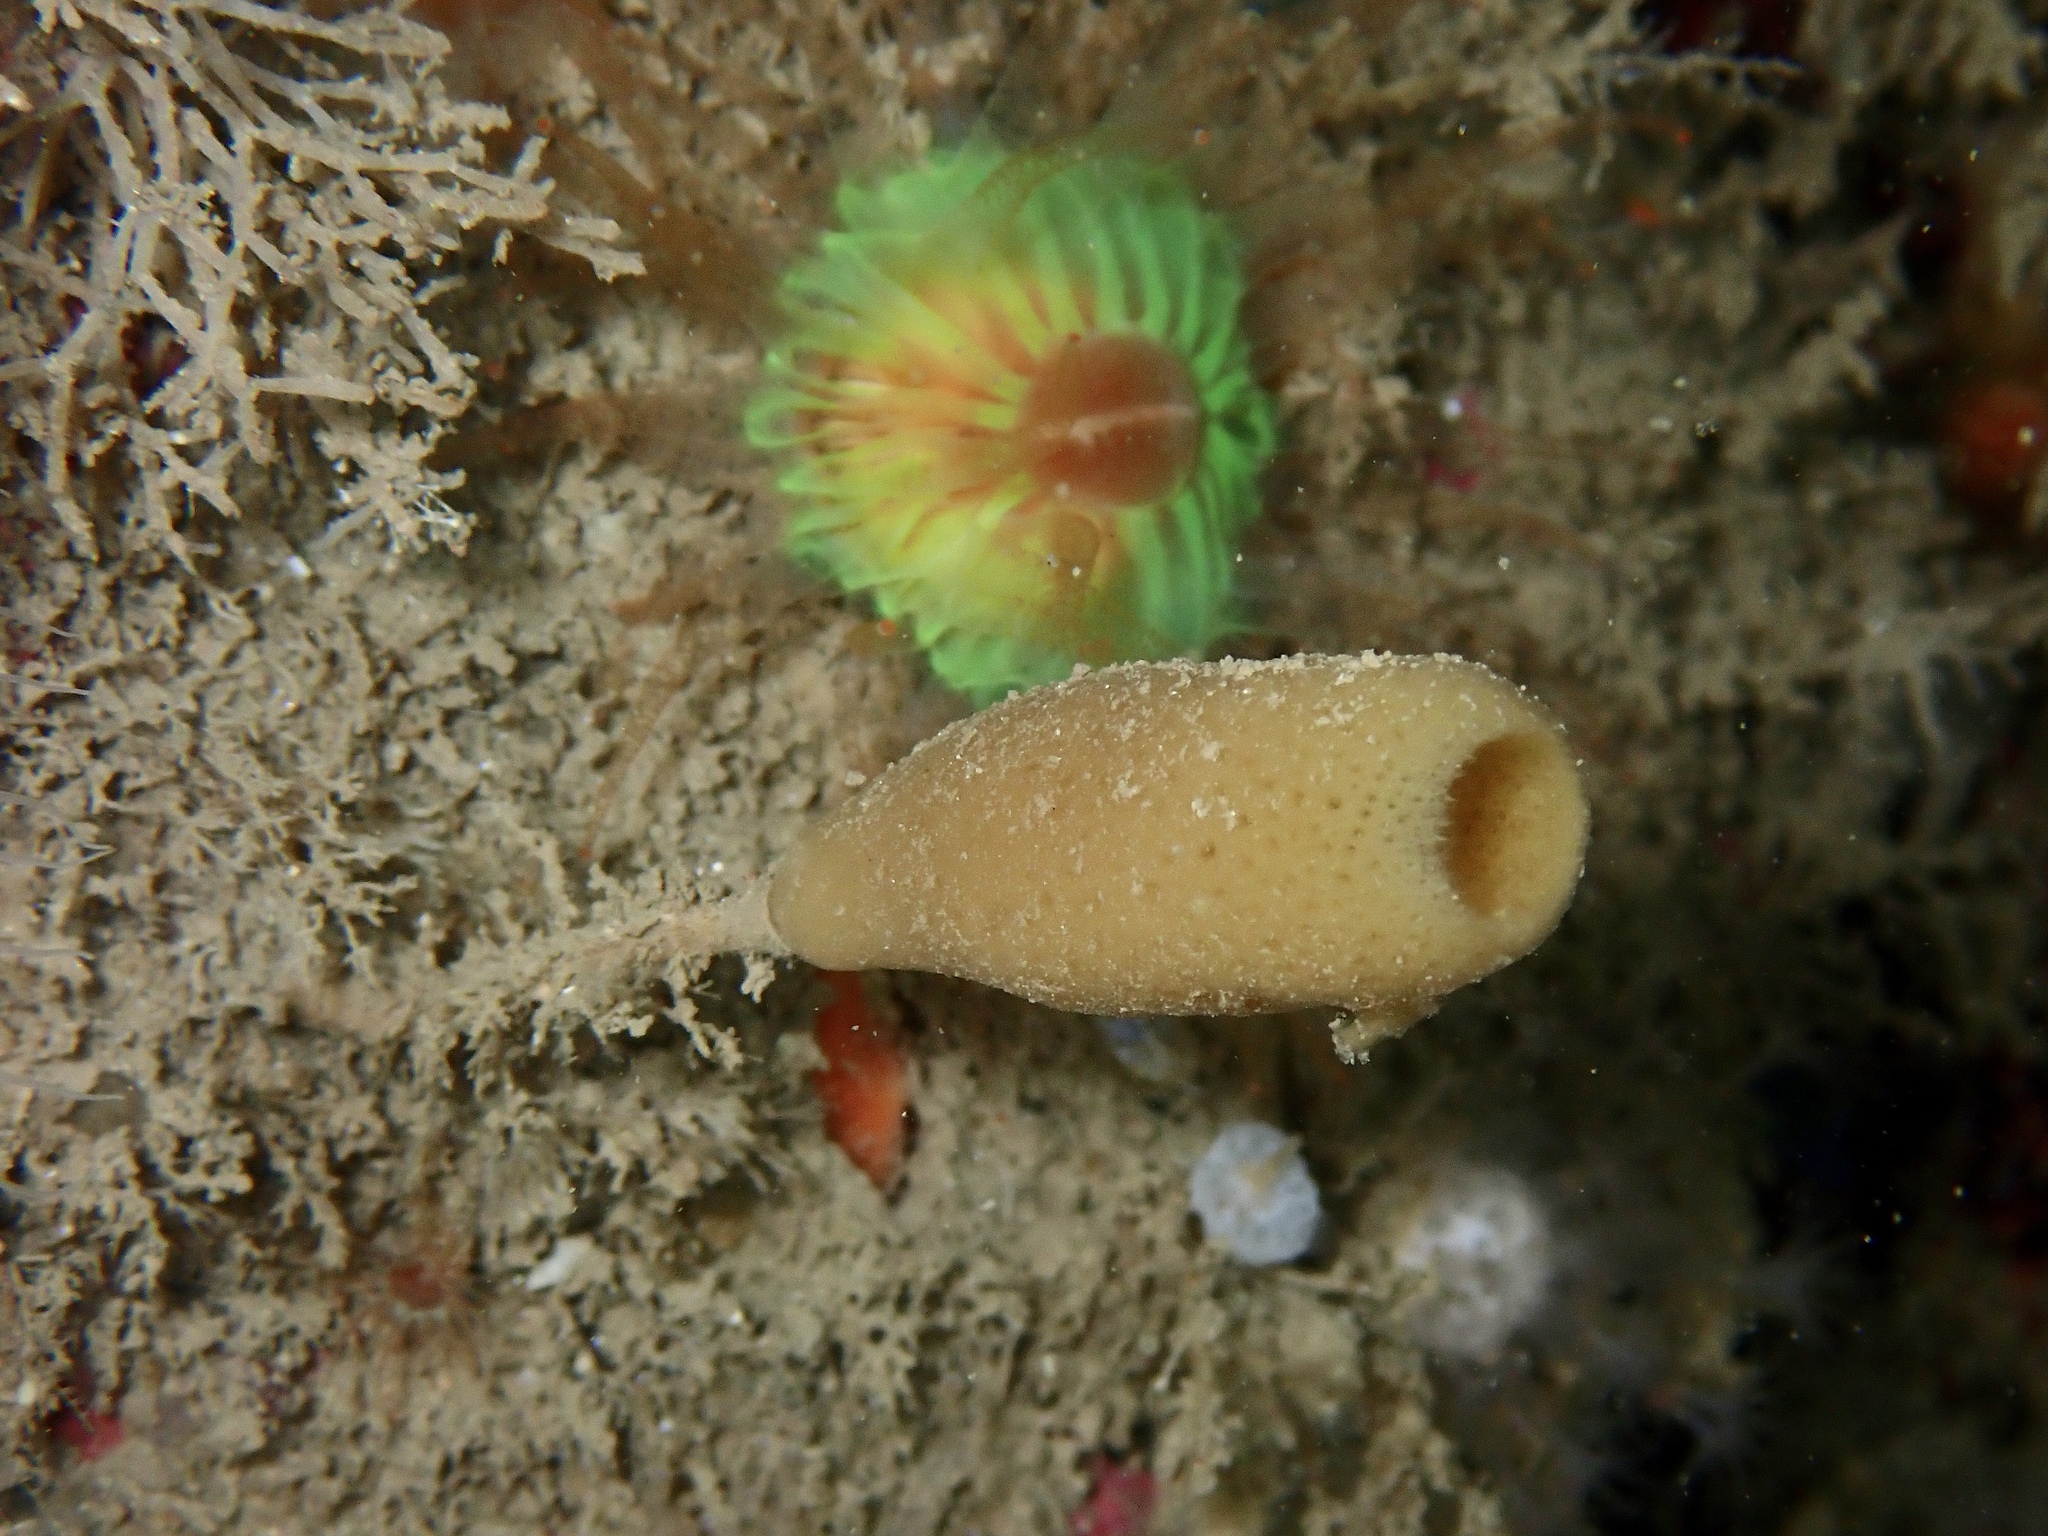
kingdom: Animalia
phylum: Porifera
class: Demospongiae
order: Haplosclerida
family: Chalinidae
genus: Haliclona
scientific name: Haliclona urceolus
